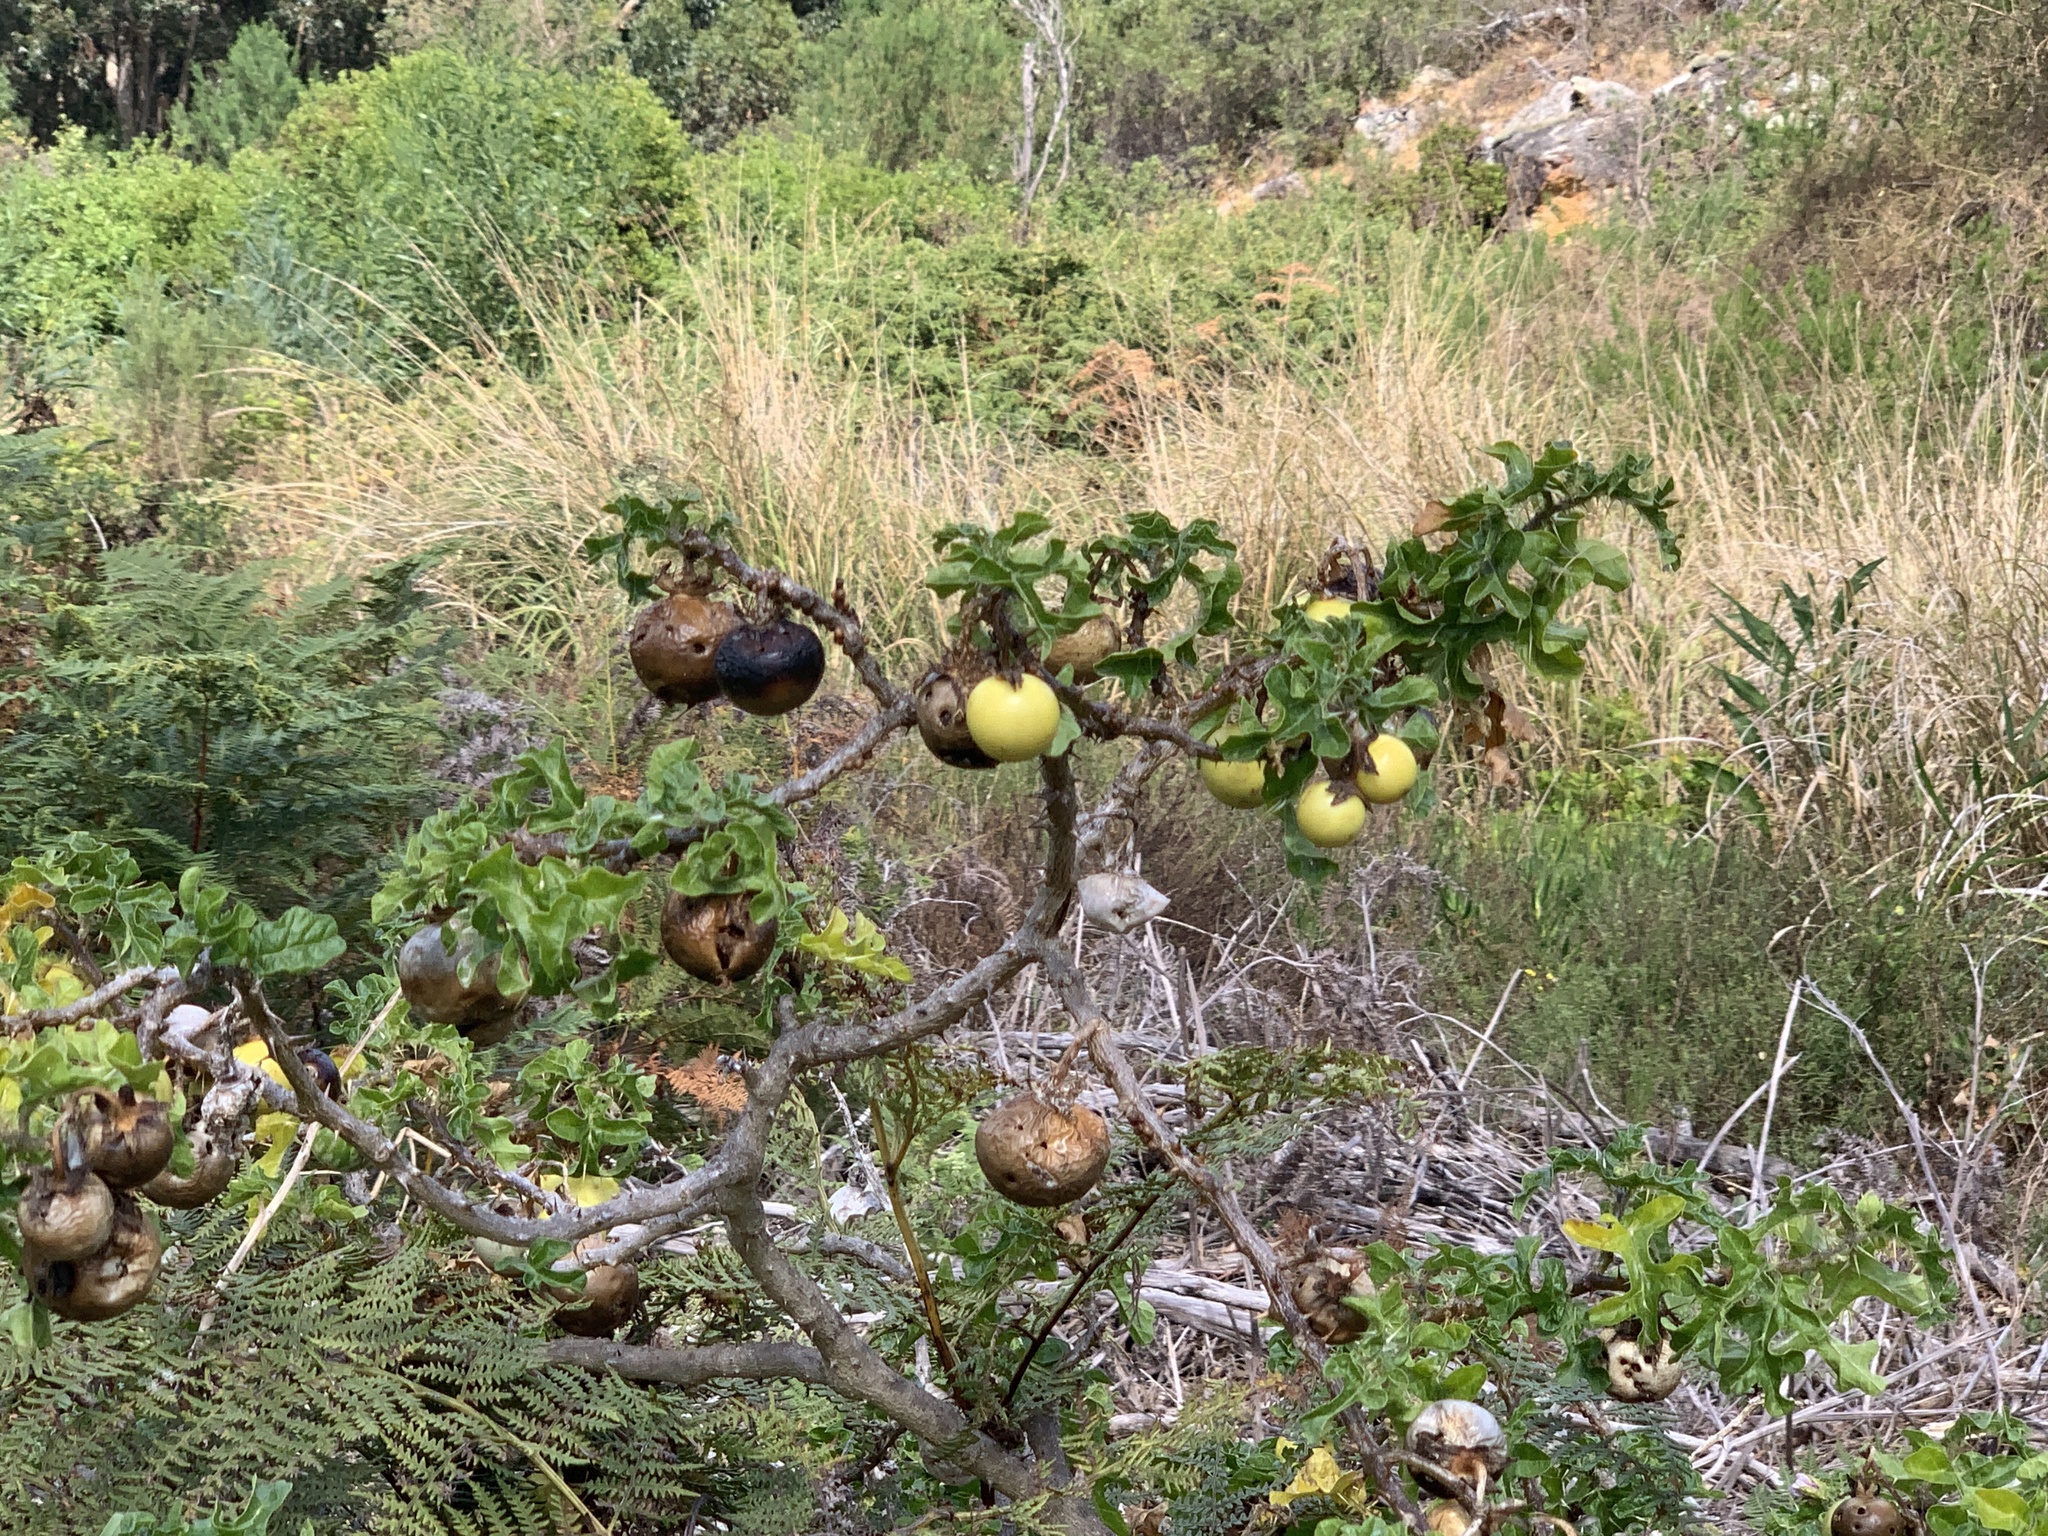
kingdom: Plantae
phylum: Tracheophyta
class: Magnoliopsida
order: Solanales
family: Solanaceae
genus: Solanum
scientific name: Solanum linnaeanum
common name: Nightshade
